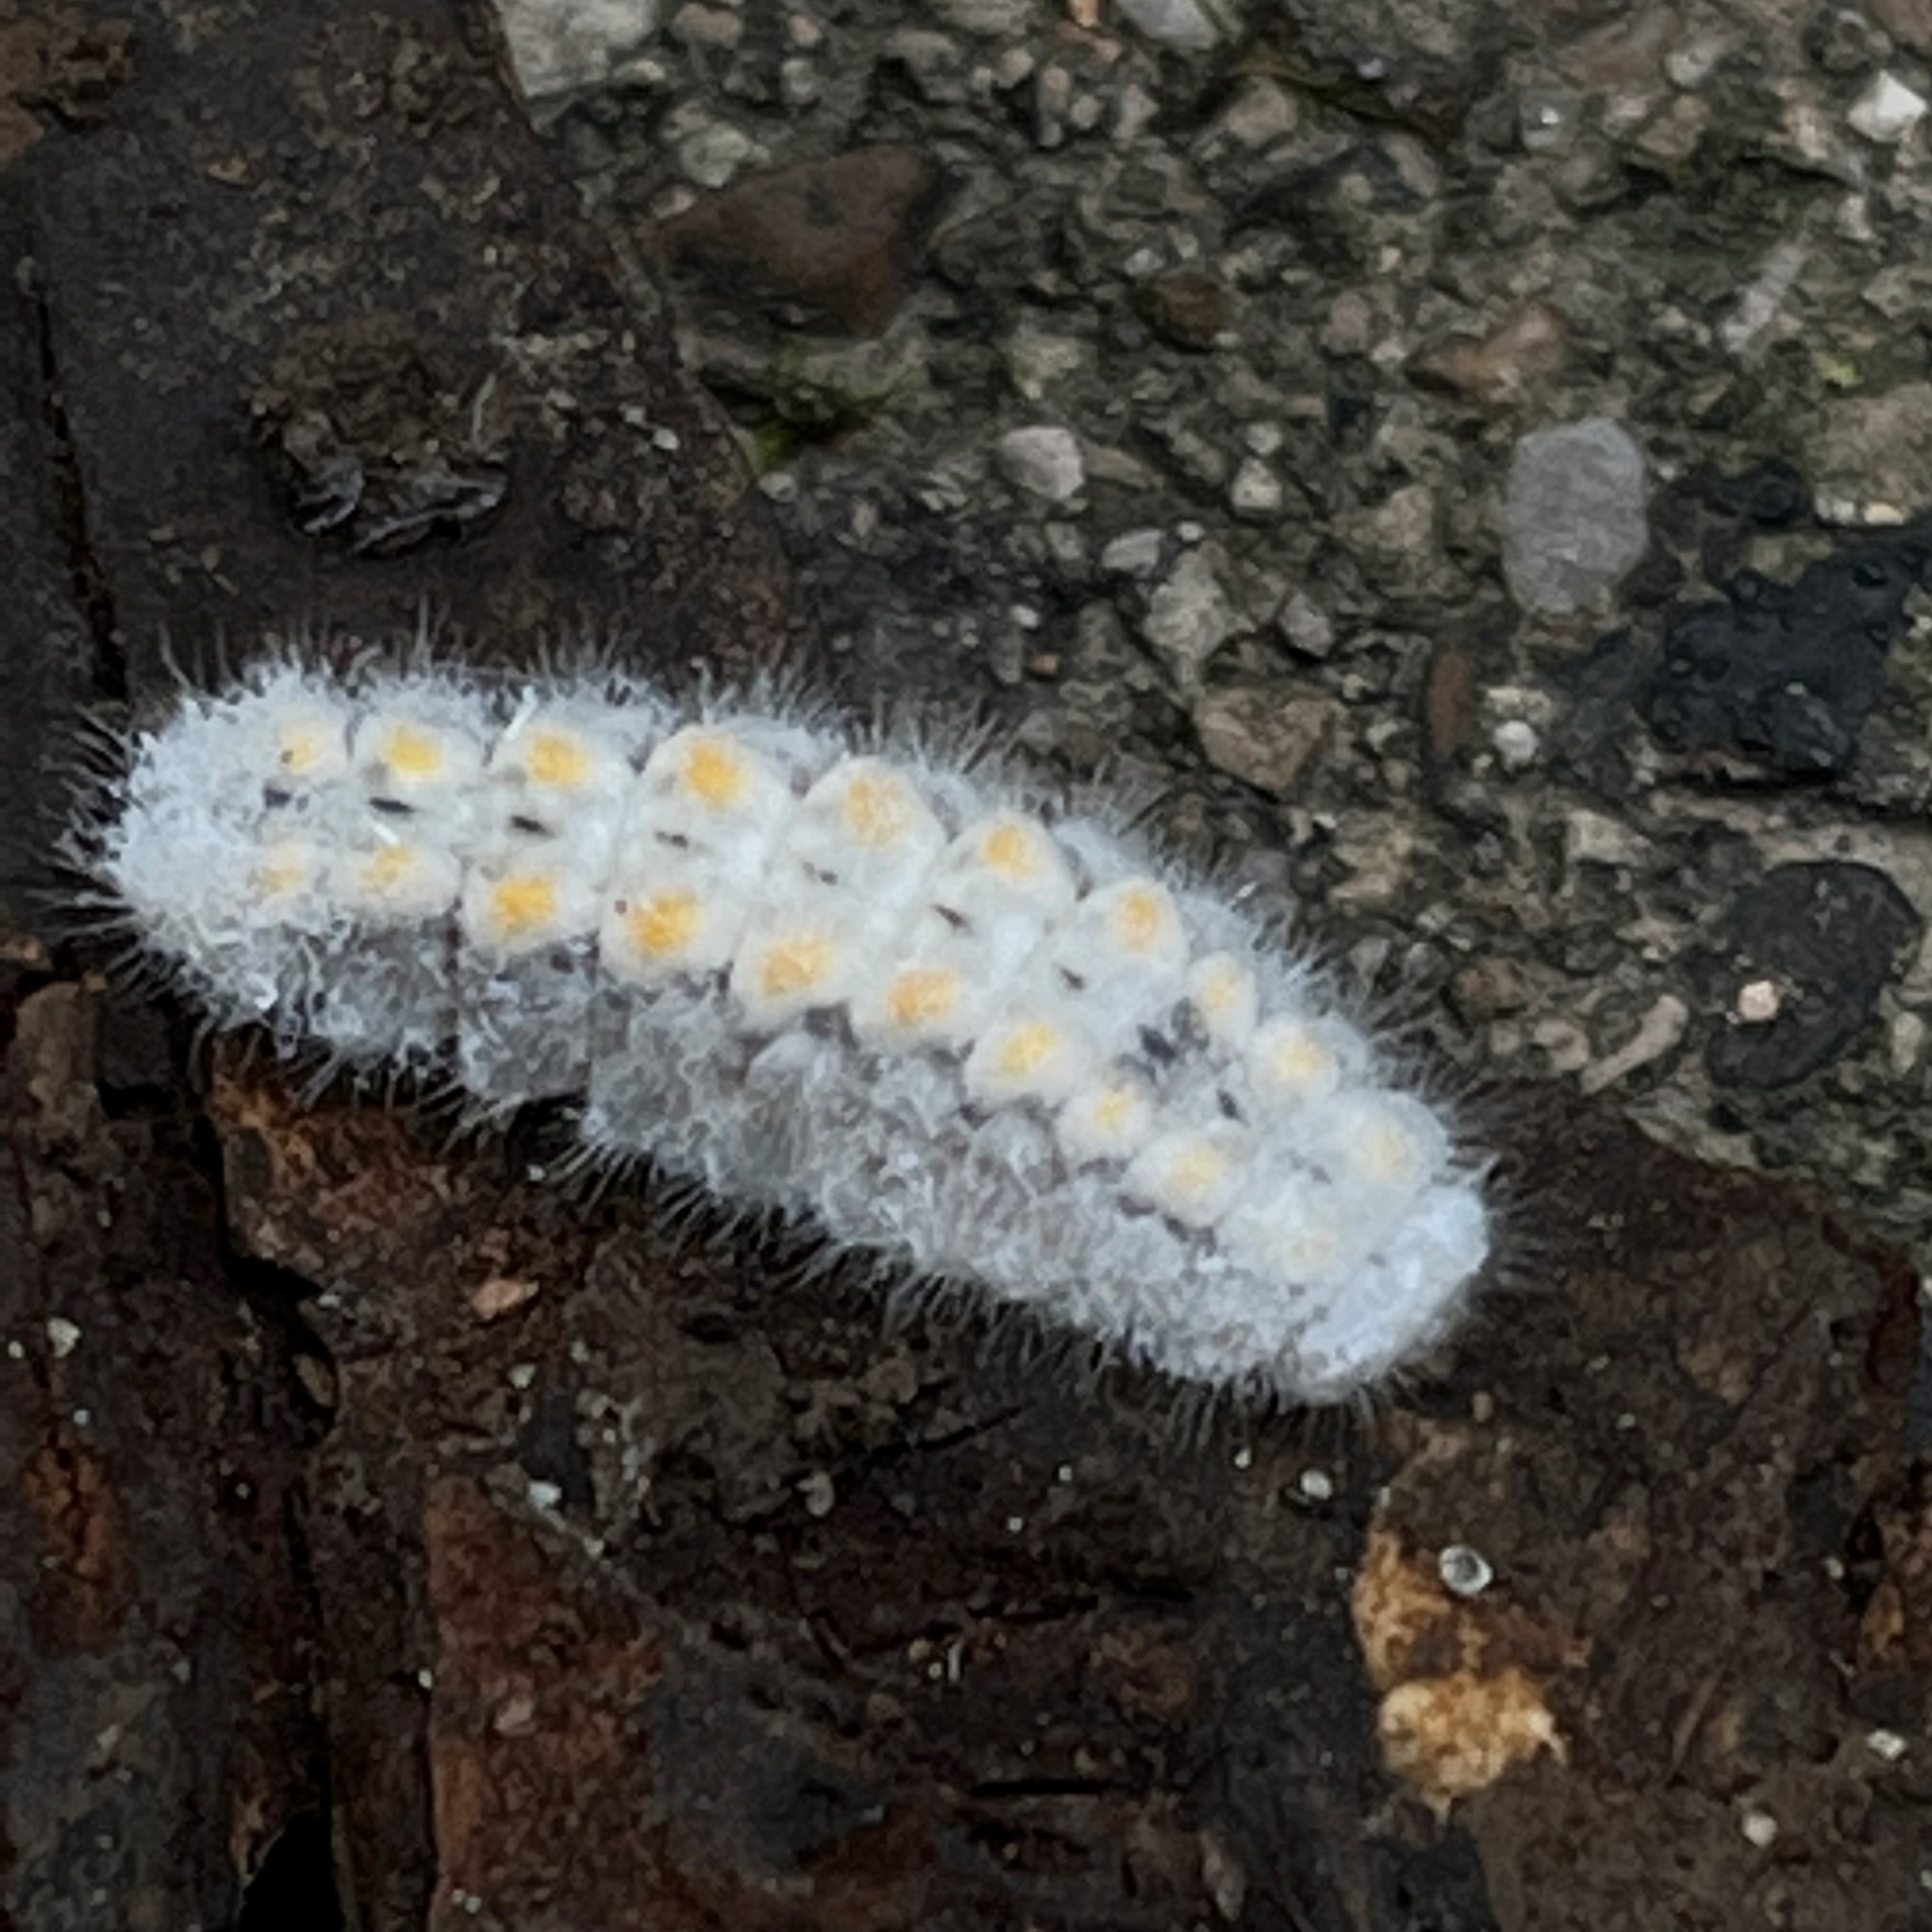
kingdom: Animalia
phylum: Arthropoda
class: Insecta
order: Lepidoptera
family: Lycaenidae
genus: Feniseca
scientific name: Feniseca tarquinius
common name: Harvester
